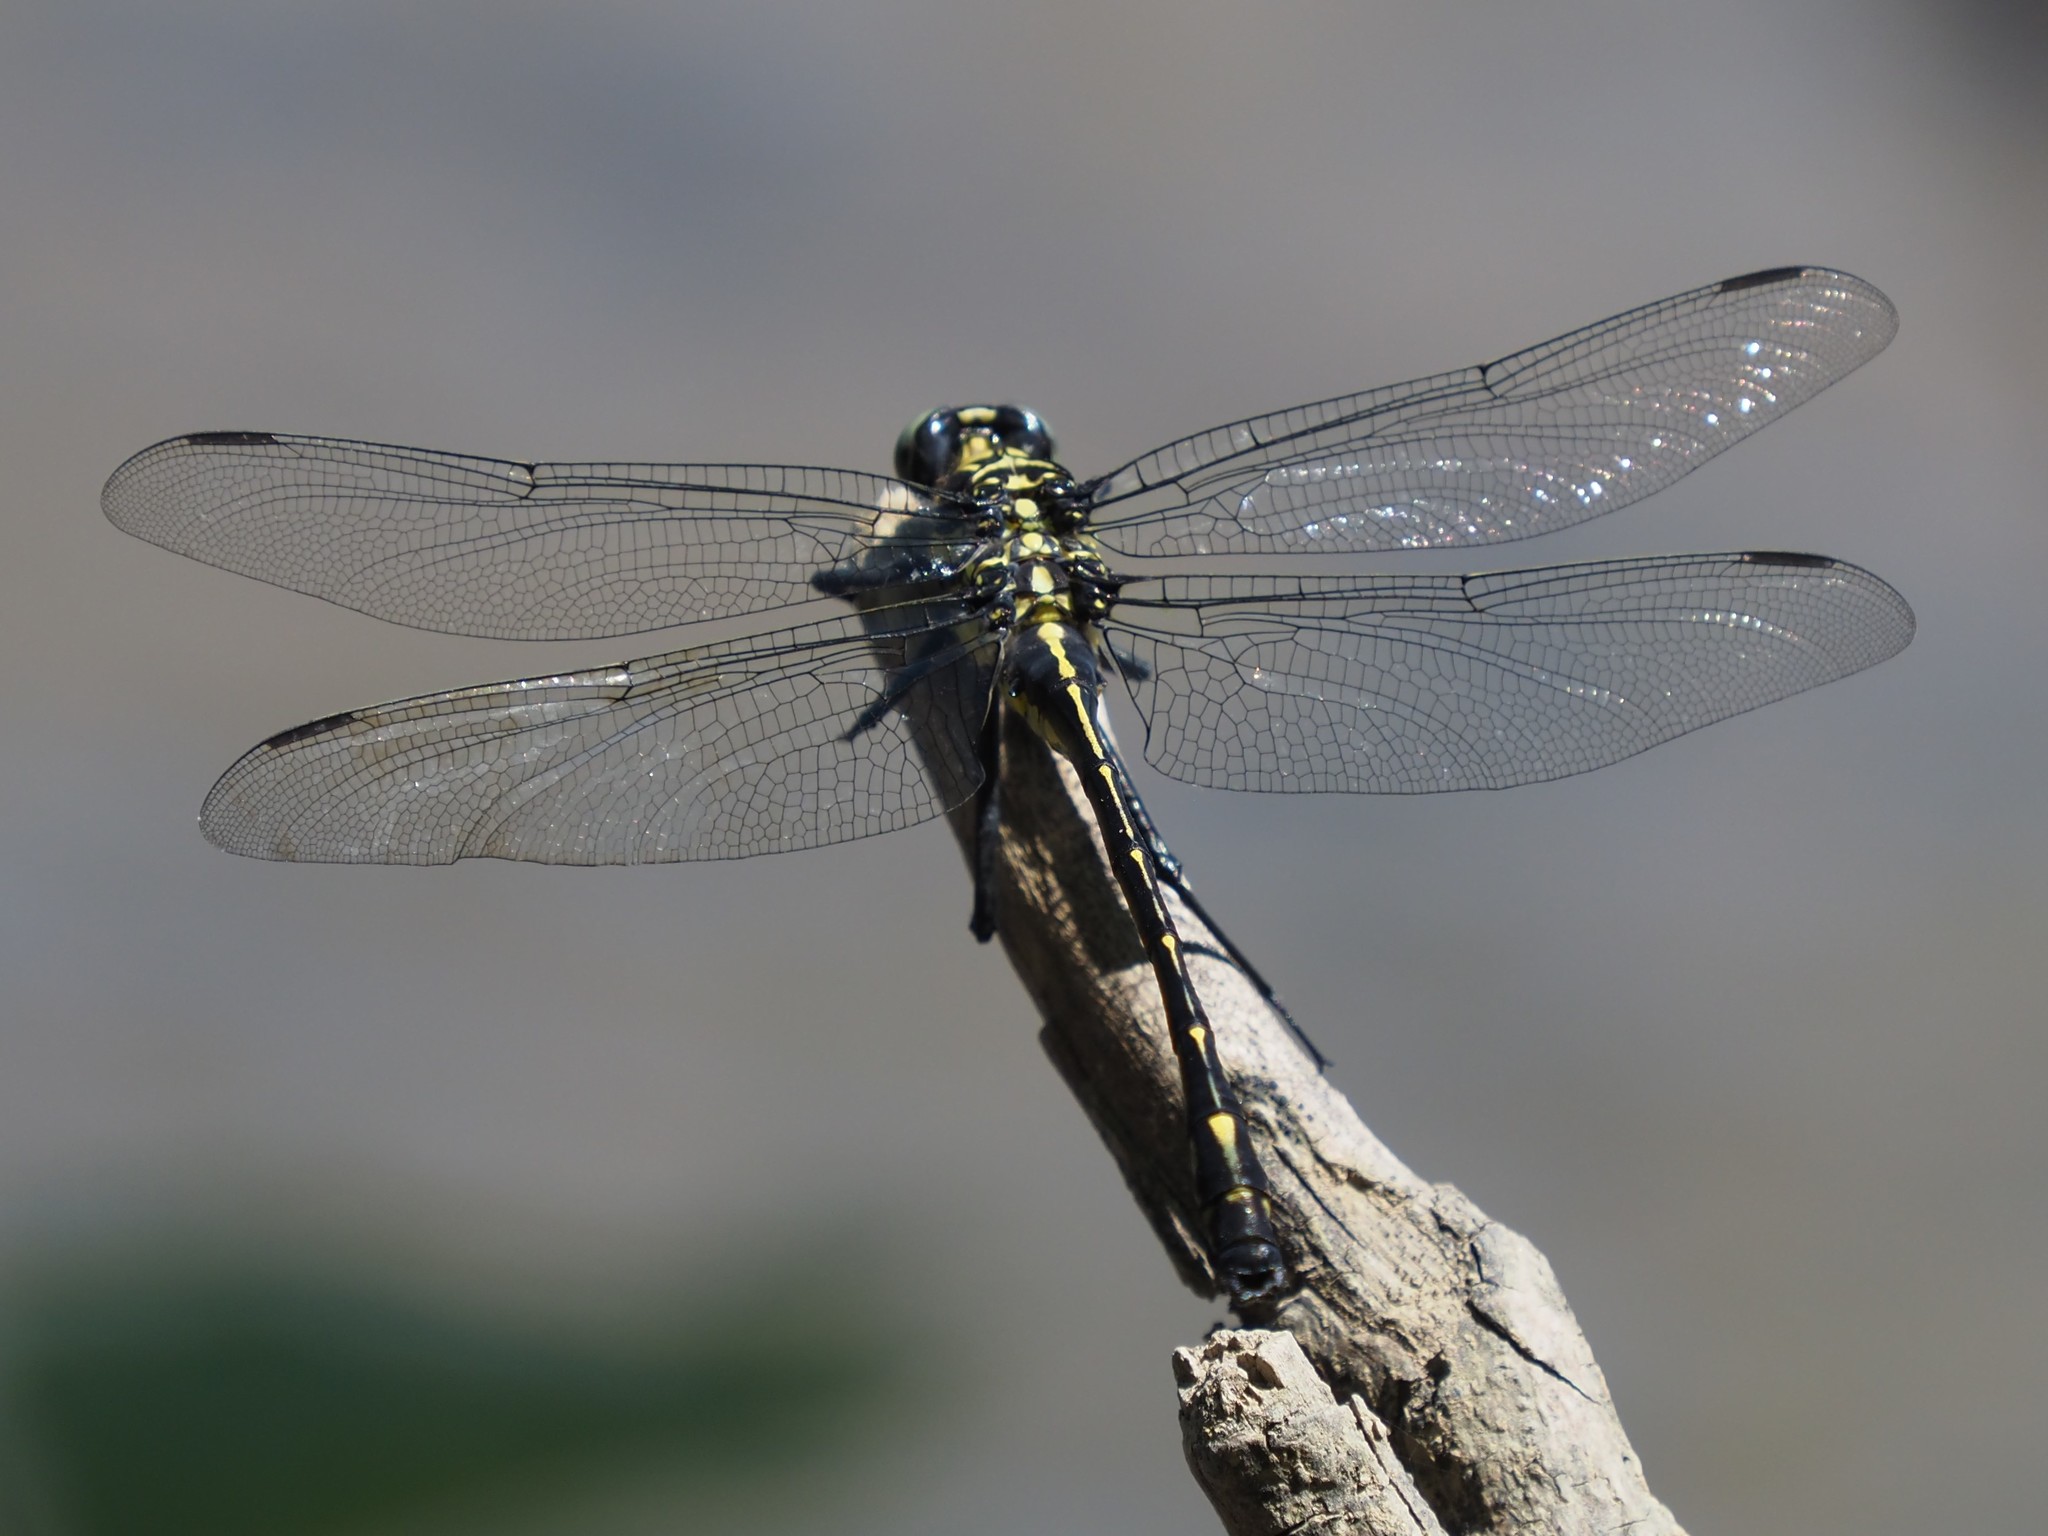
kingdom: Animalia
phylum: Arthropoda
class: Insecta
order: Odonata
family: Gomphidae
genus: Hagenius
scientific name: Hagenius brevistylus
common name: Dragonhunter
